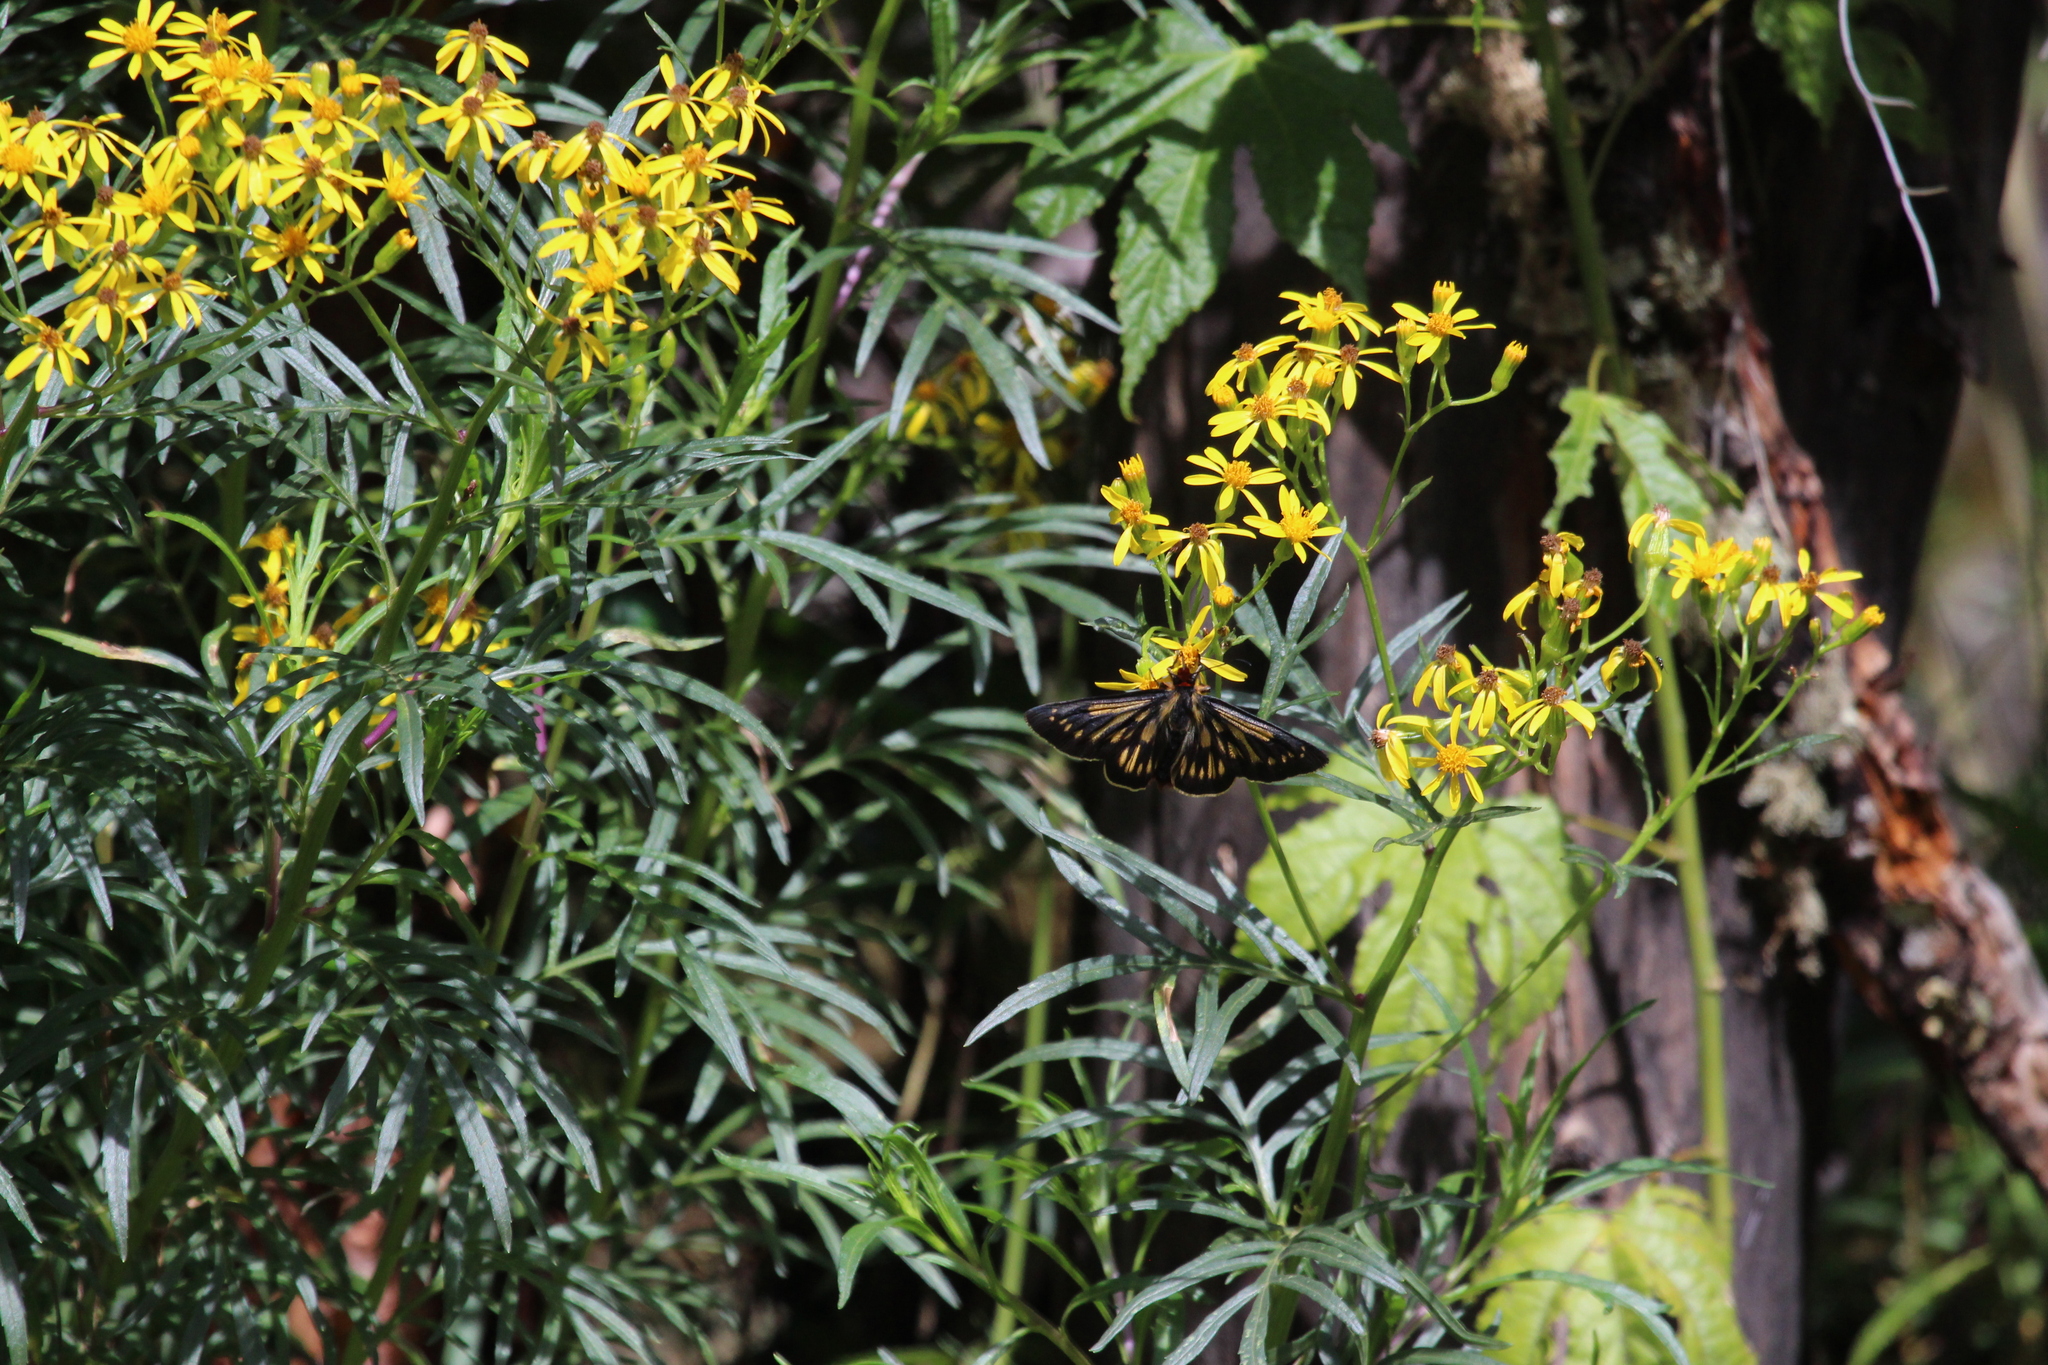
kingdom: Plantae
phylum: Tracheophyta
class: Magnoliopsida
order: Asterales
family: Asteraceae
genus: Senecio
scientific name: Senecio rudbeckiifolius
